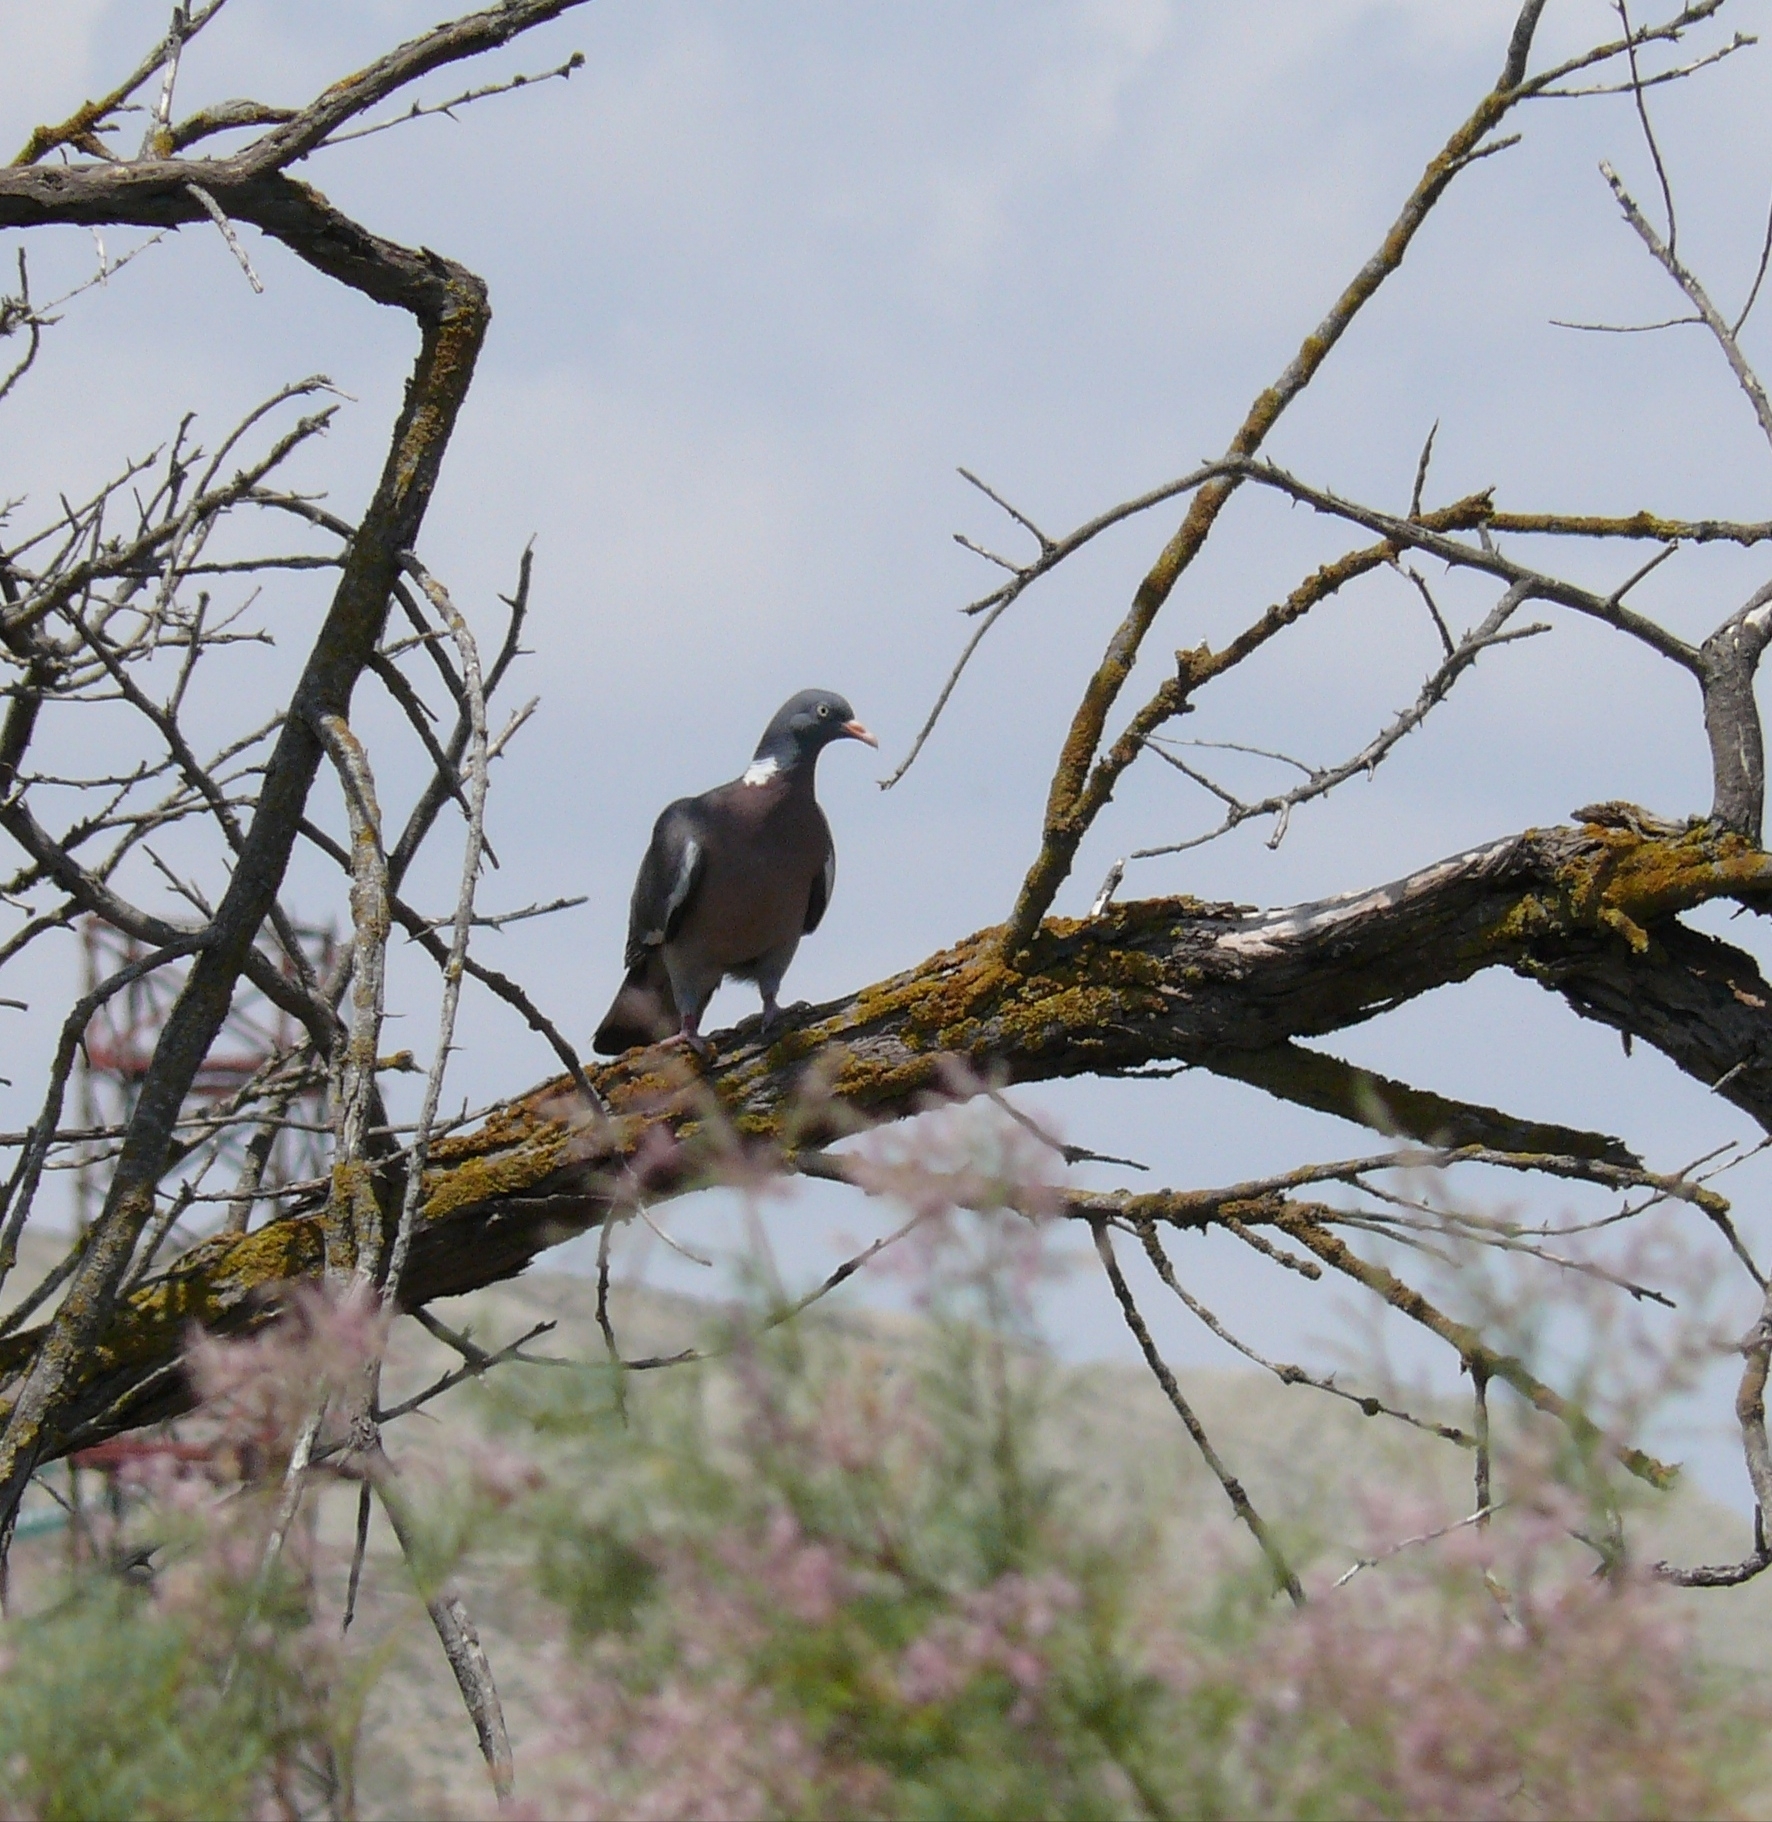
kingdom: Animalia
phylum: Chordata
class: Aves
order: Columbiformes
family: Columbidae
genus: Columba
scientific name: Columba palumbus
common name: Common wood pigeon
